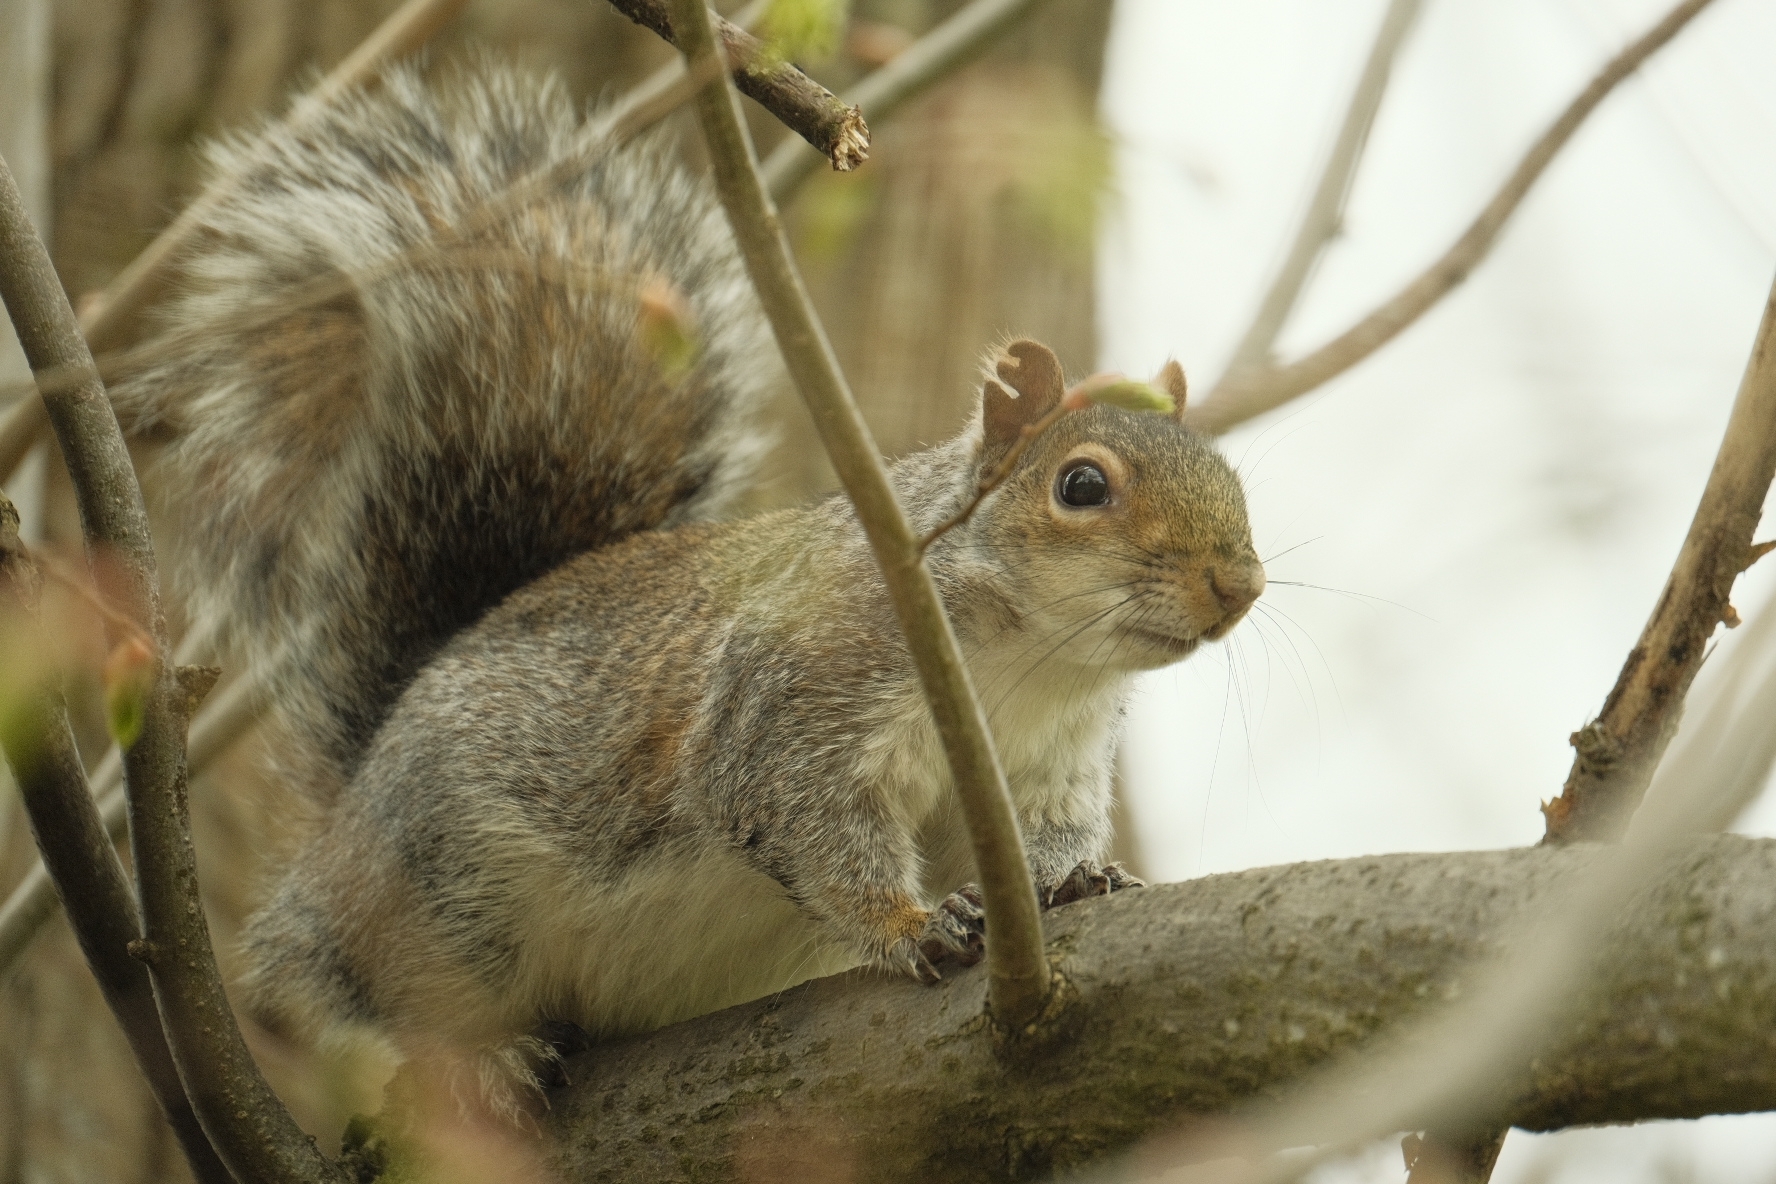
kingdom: Animalia
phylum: Chordata
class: Mammalia
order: Rodentia
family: Sciuridae
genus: Sciurus
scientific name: Sciurus carolinensis
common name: Eastern gray squirrel
